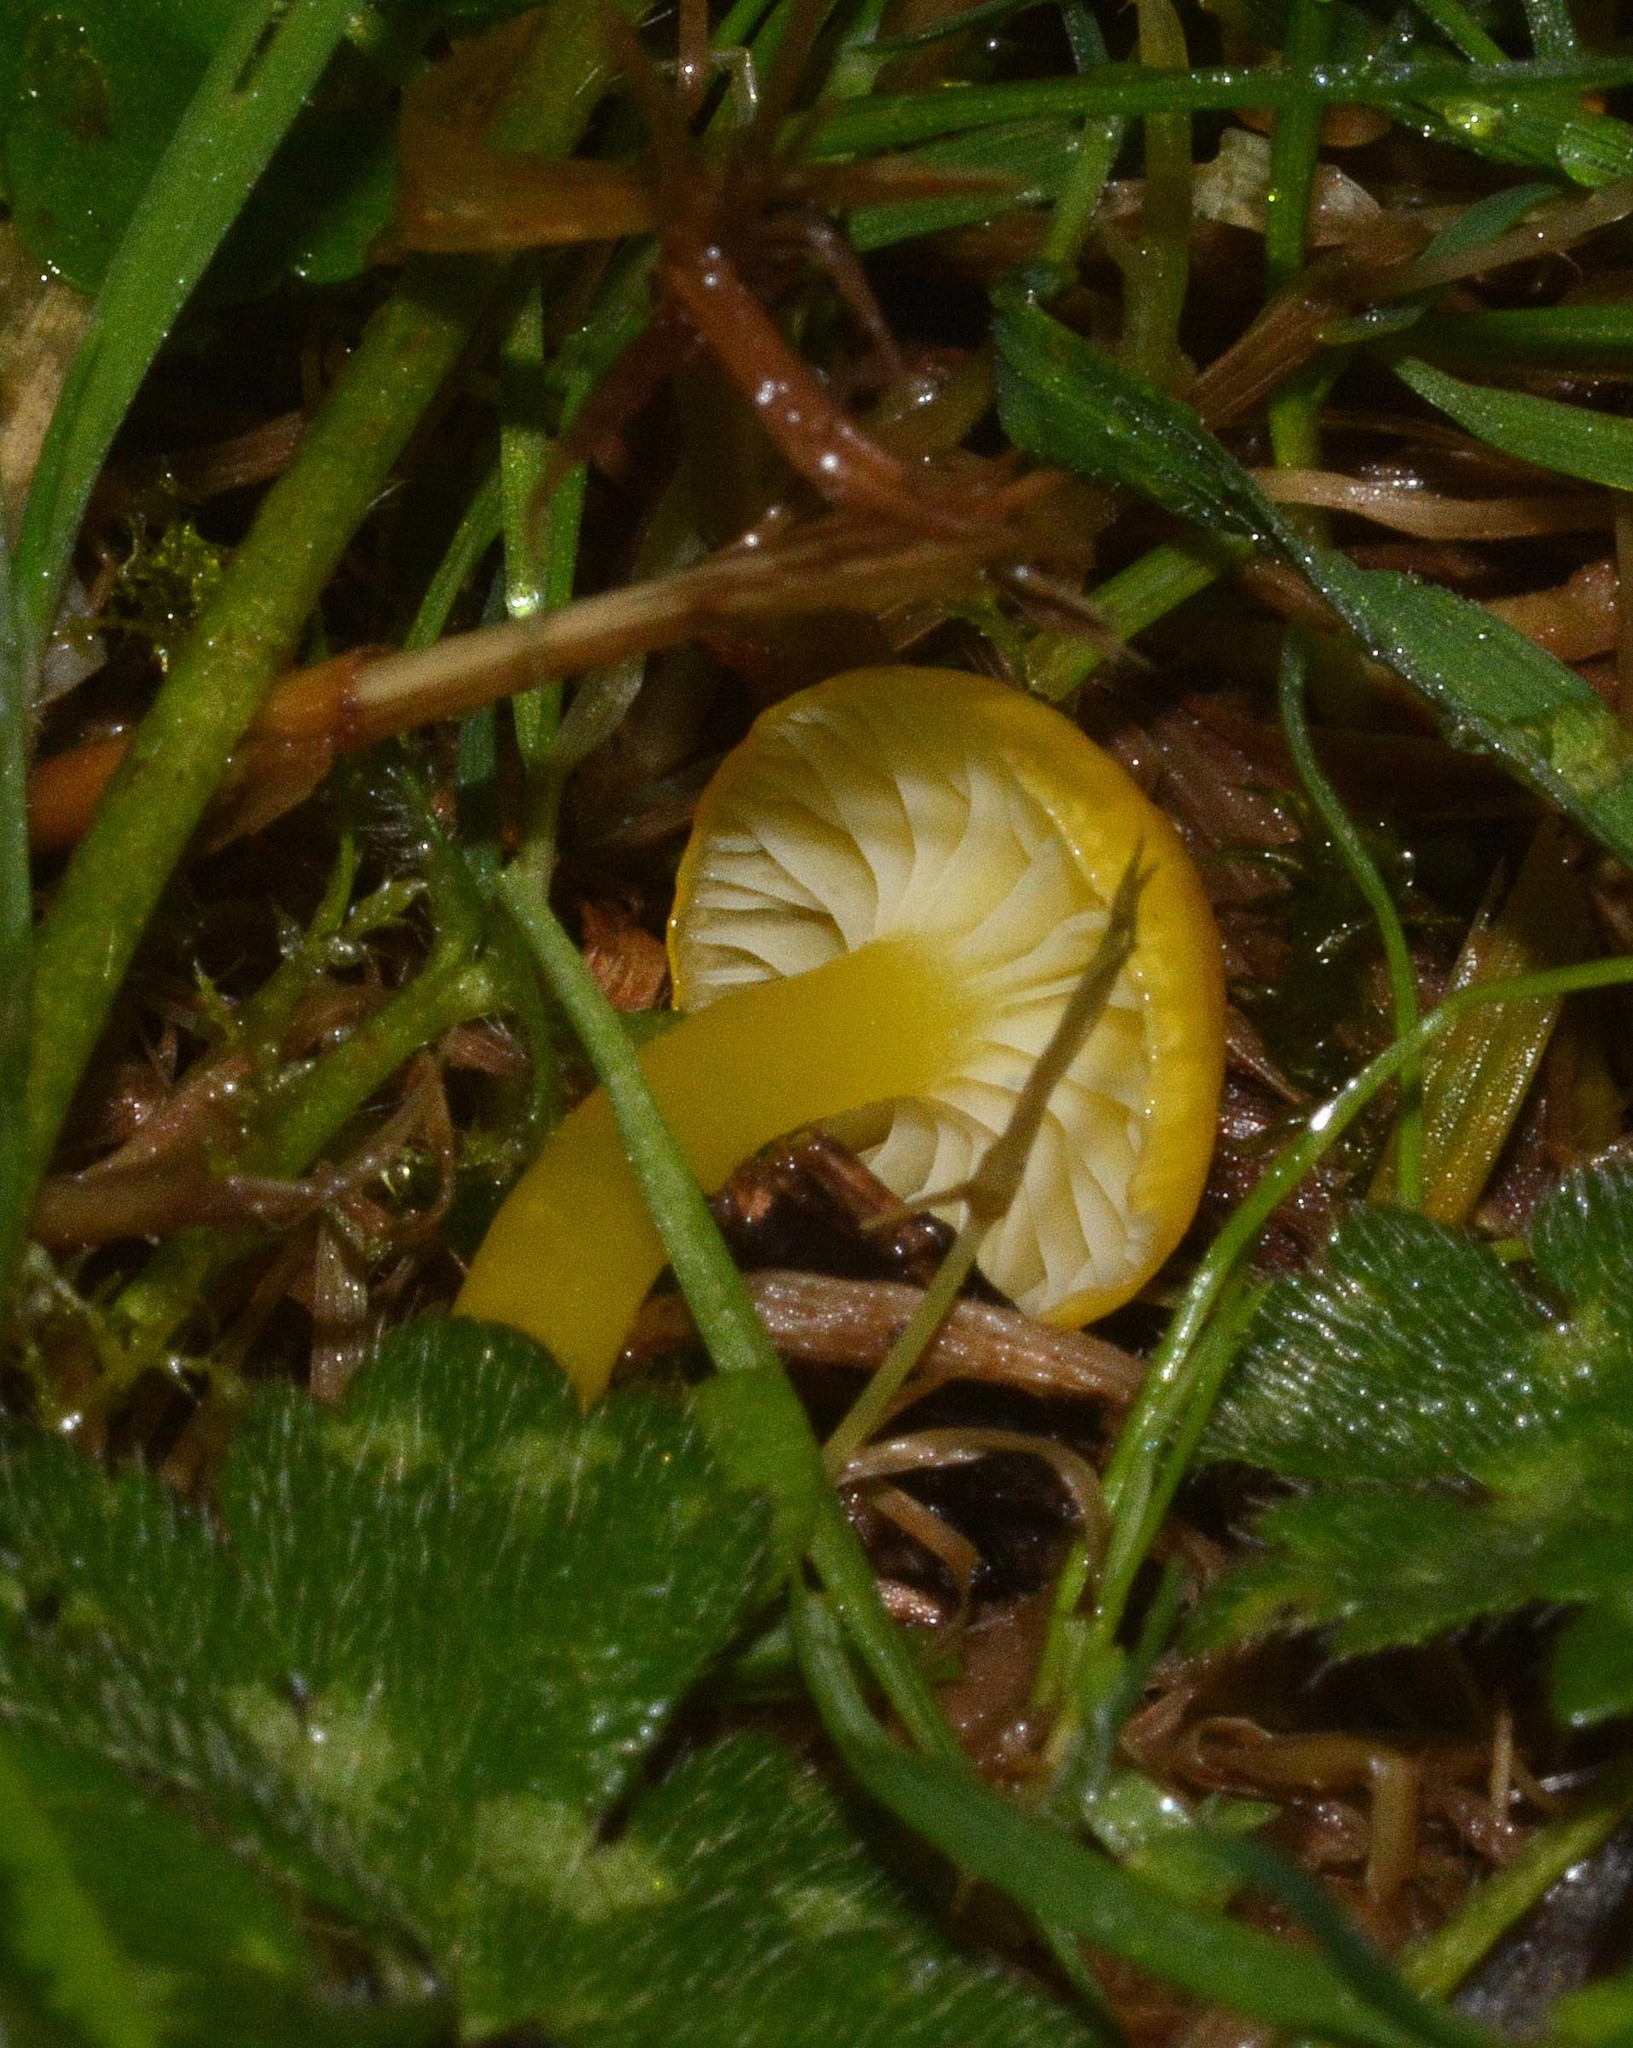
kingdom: Fungi
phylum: Basidiomycota
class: Agaricomycetes
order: Agaricales
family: Hygrophoraceae
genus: Hygrocybe
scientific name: Hygrocybe ceracea
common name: Butter waxcap
